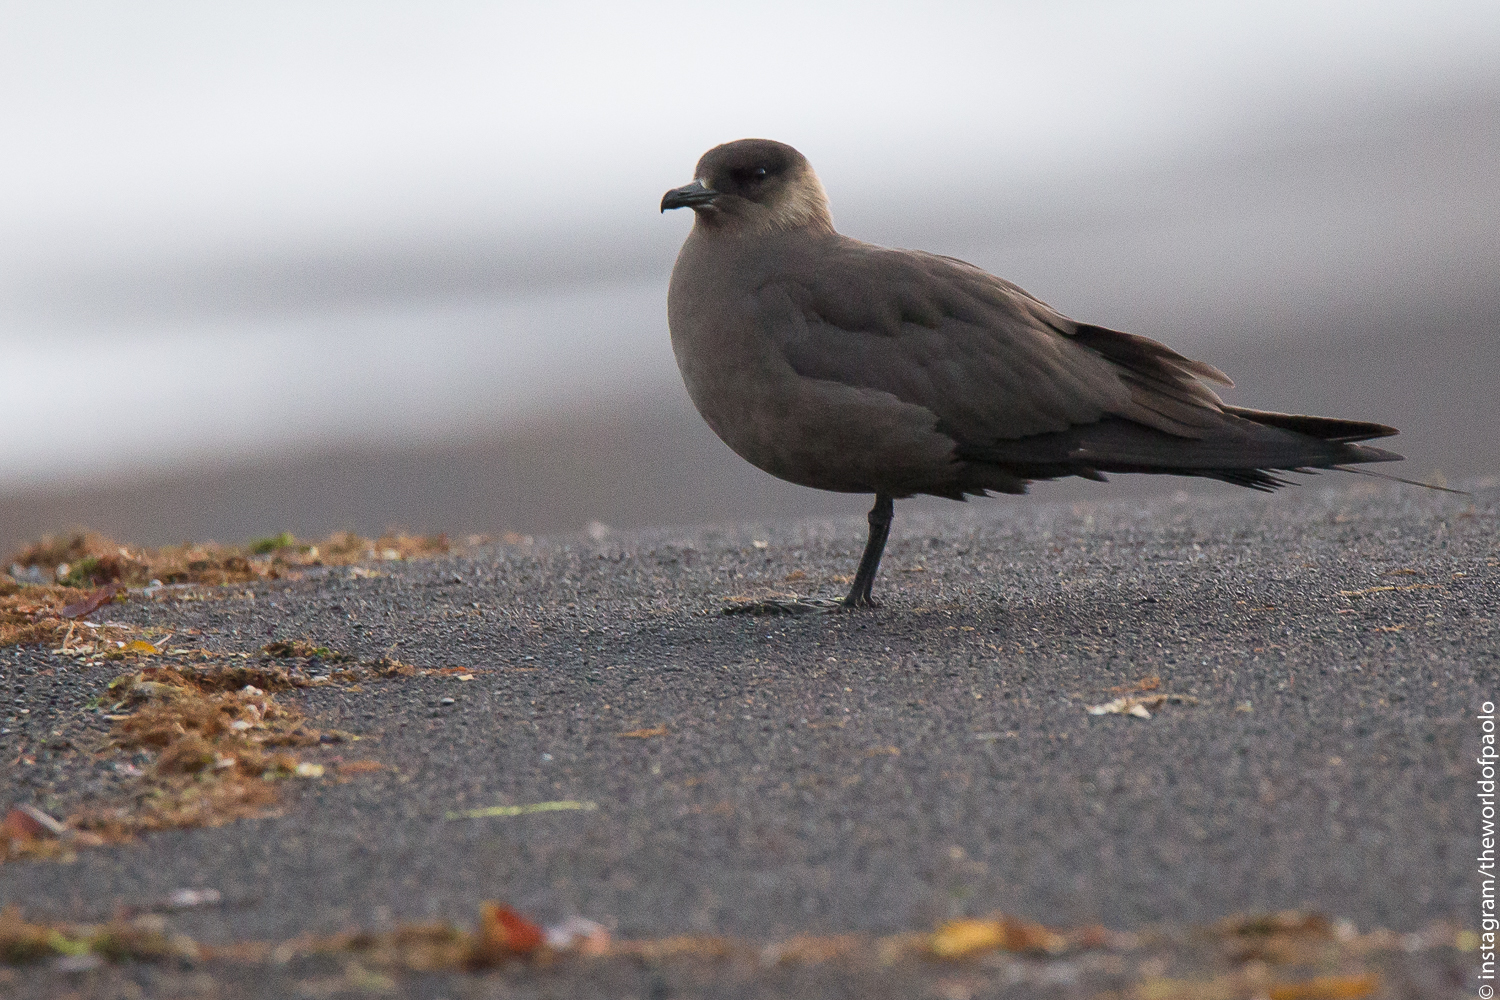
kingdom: Animalia
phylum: Chordata
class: Aves
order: Charadriiformes
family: Stercorariidae
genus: Stercorarius
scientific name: Stercorarius parasiticus
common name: Parasitic jaeger
